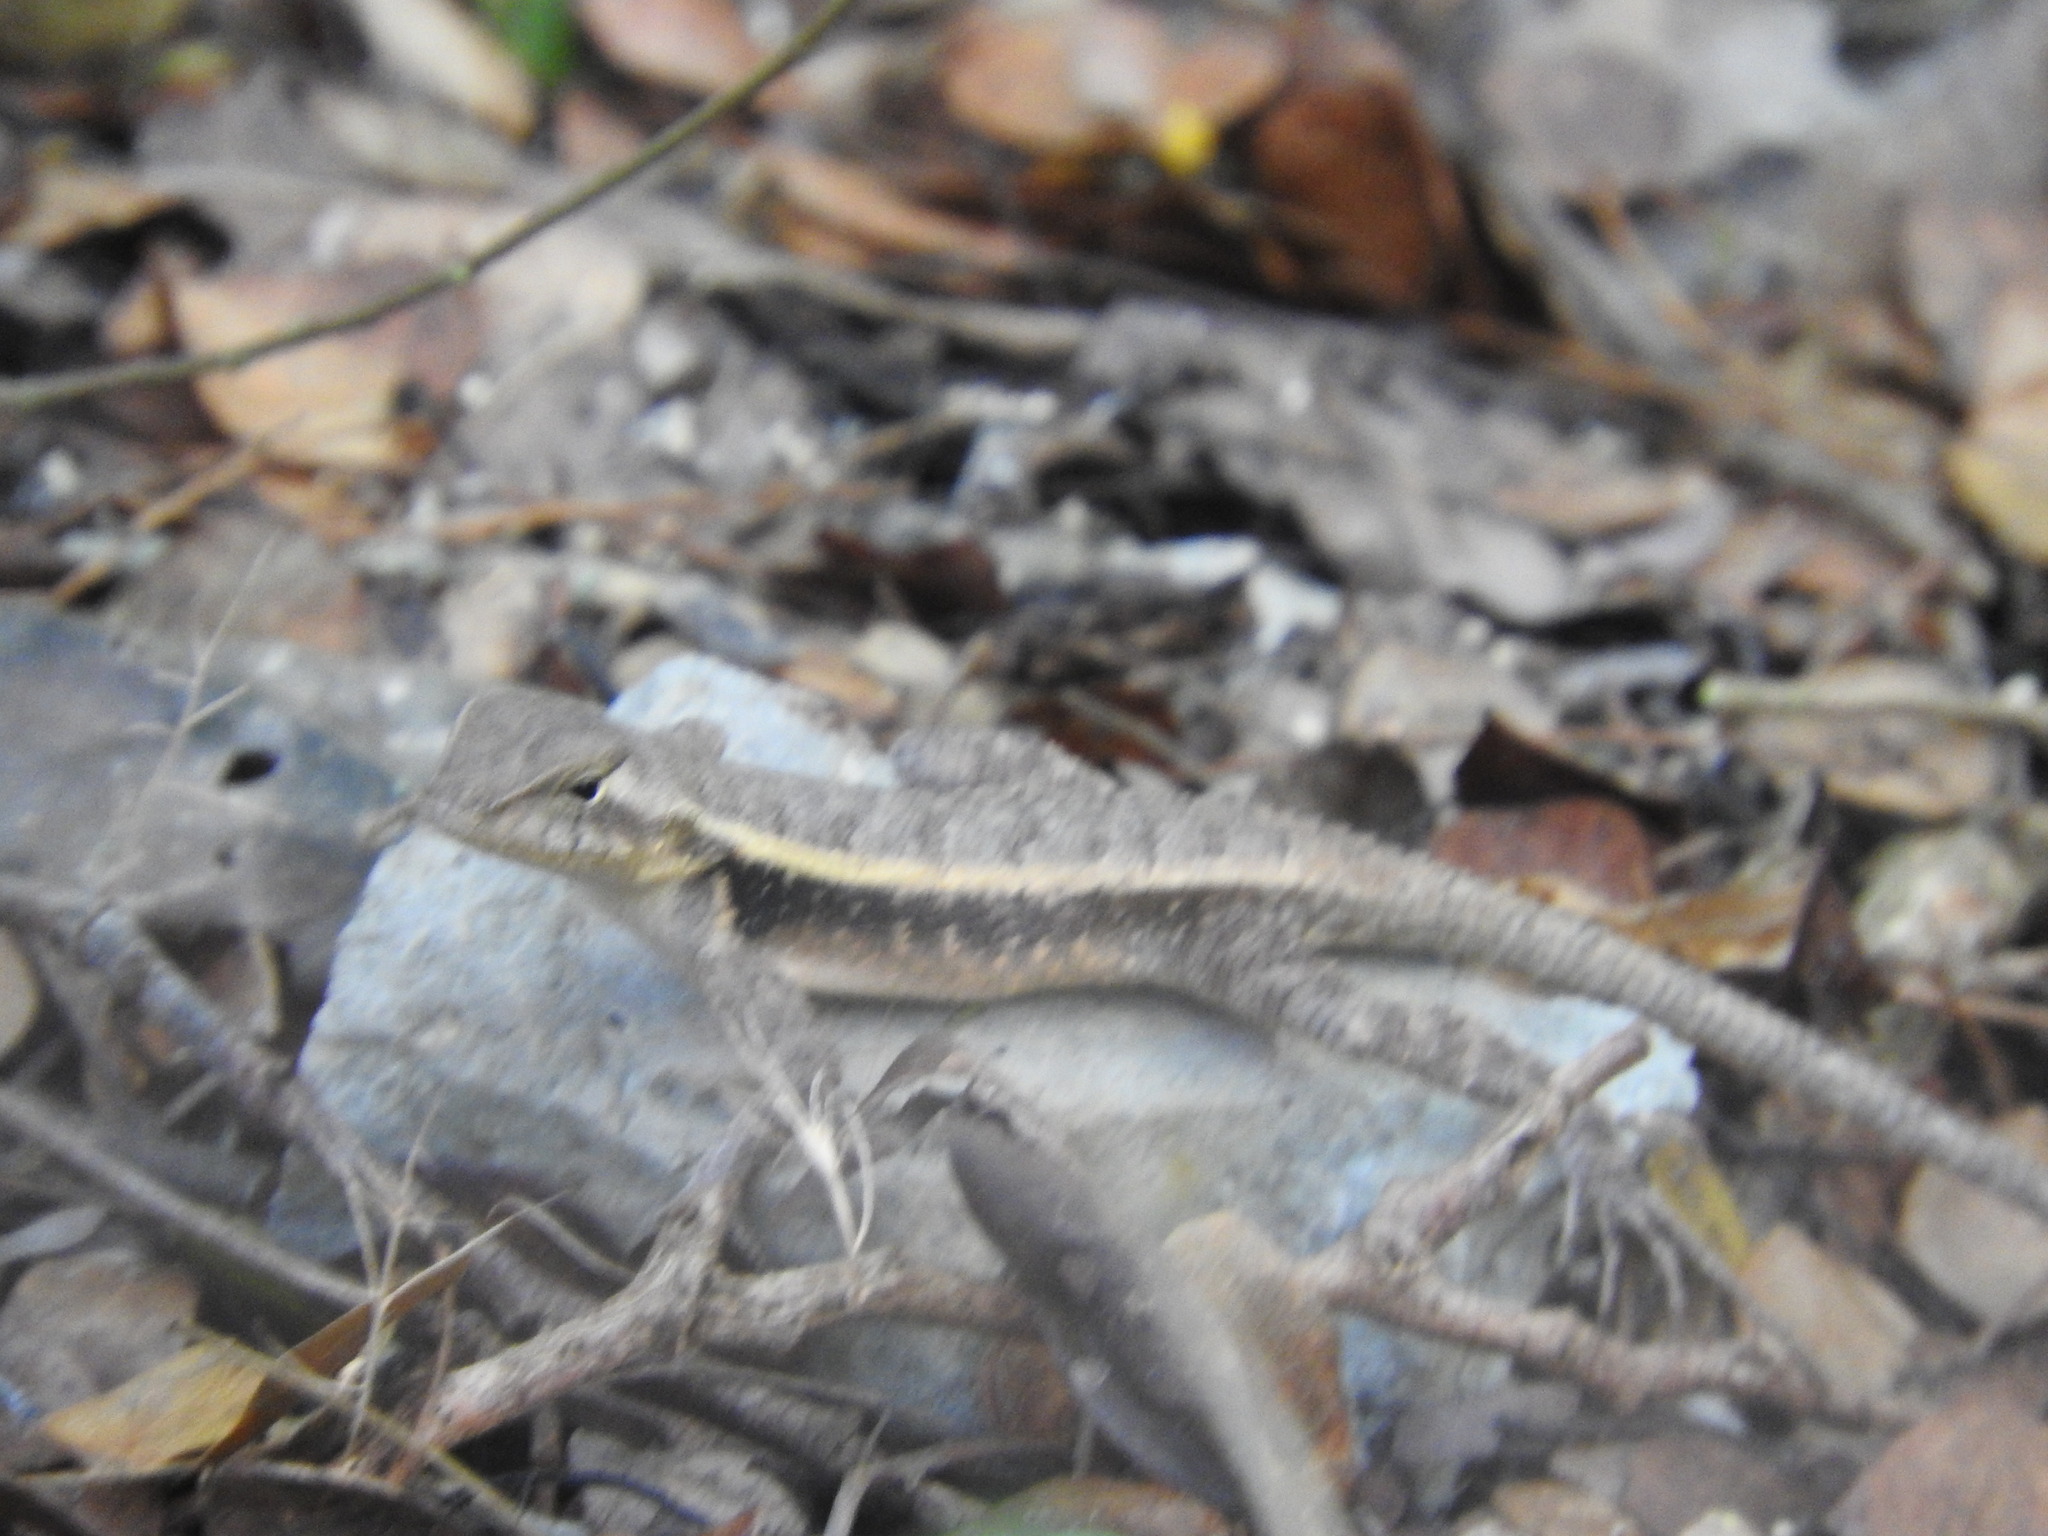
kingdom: Animalia
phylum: Chordata
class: Squamata
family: Phrynosomatidae
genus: Sceloporus
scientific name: Sceloporus chrysostictus
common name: Yellow-spotted spiny lizard
